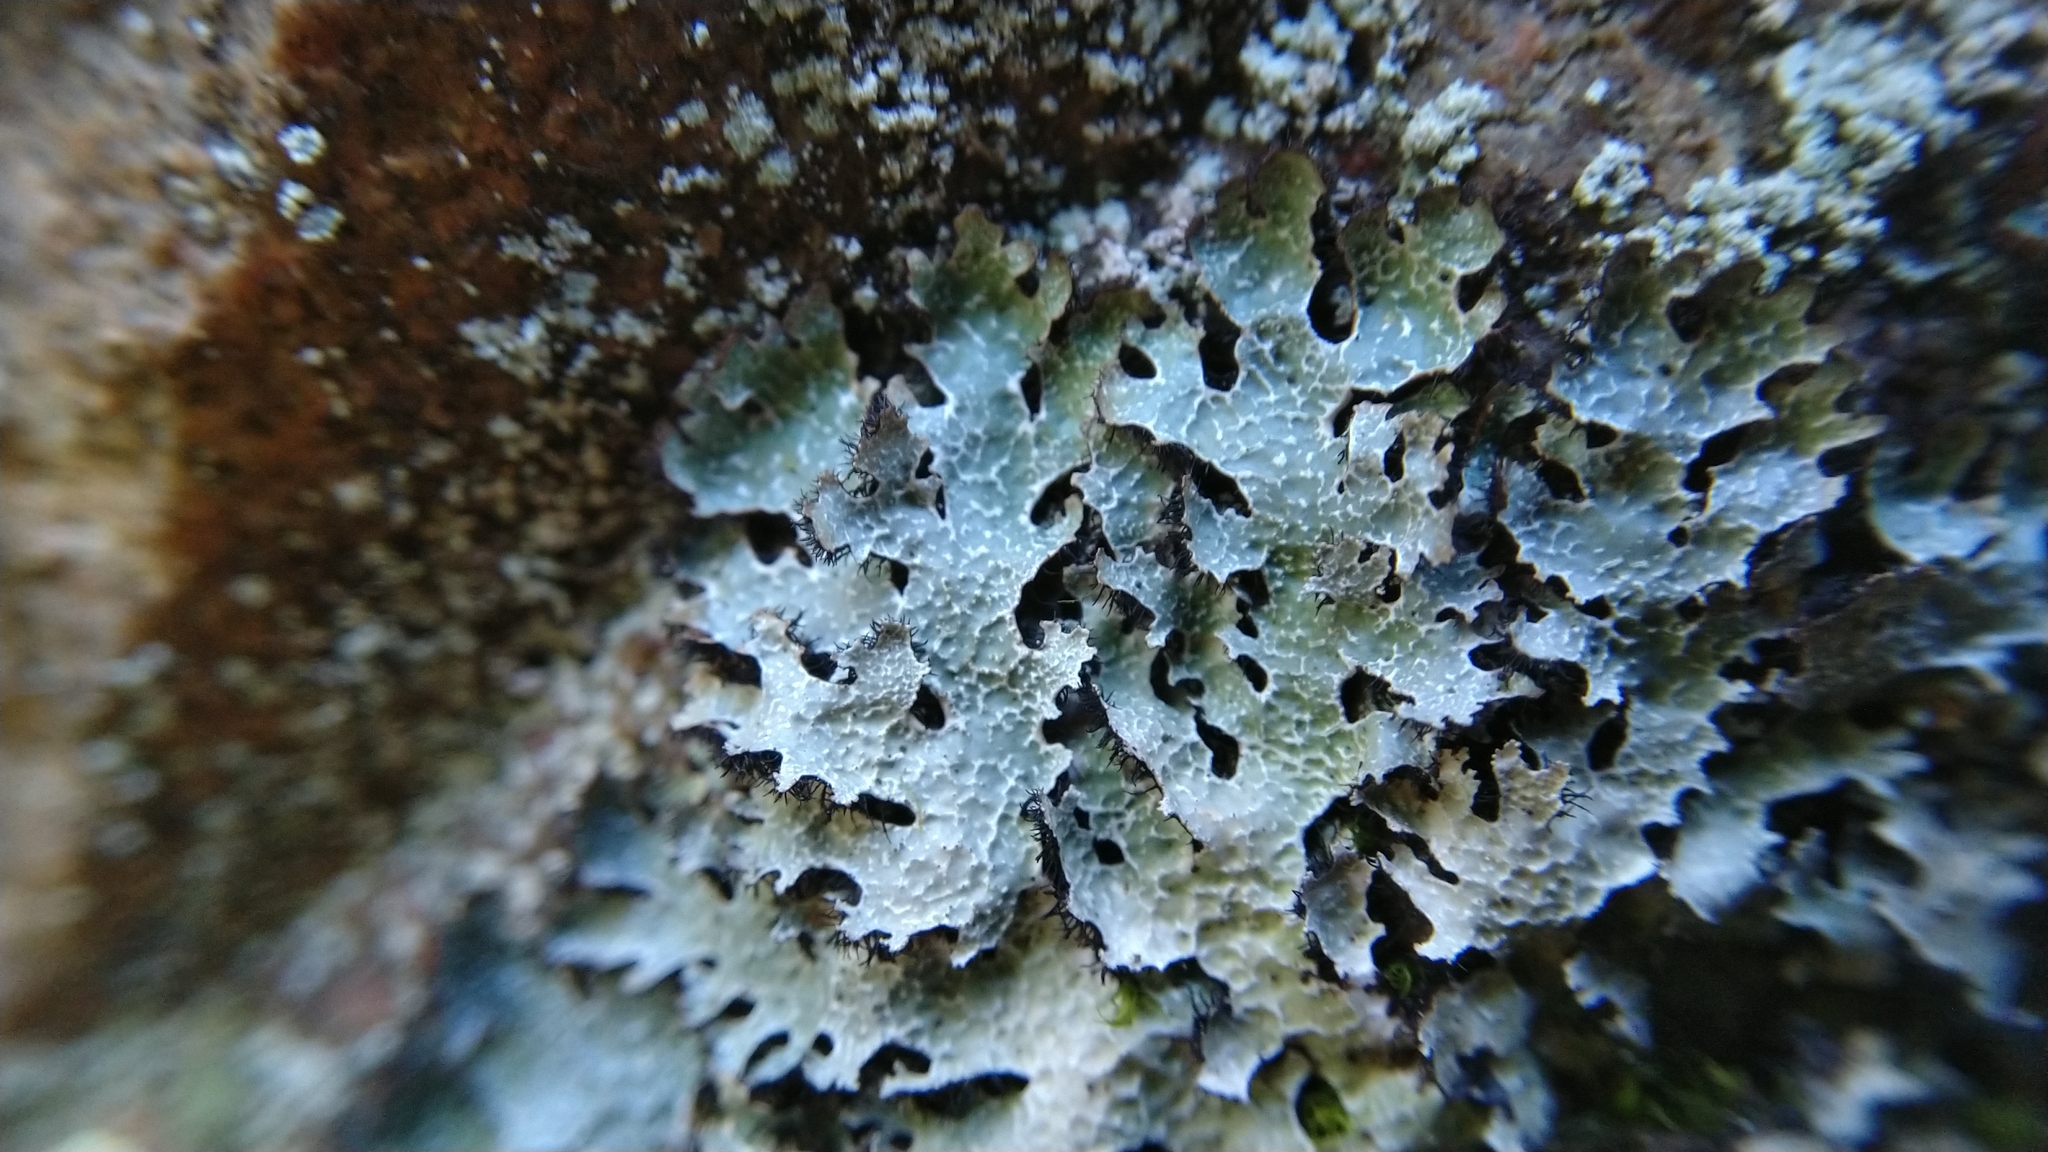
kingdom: Fungi
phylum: Ascomycota
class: Lecanoromycetes
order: Lecanorales
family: Parmeliaceae
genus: Parmelia
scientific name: Parmelia saxatilis
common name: Salted shield lichen
